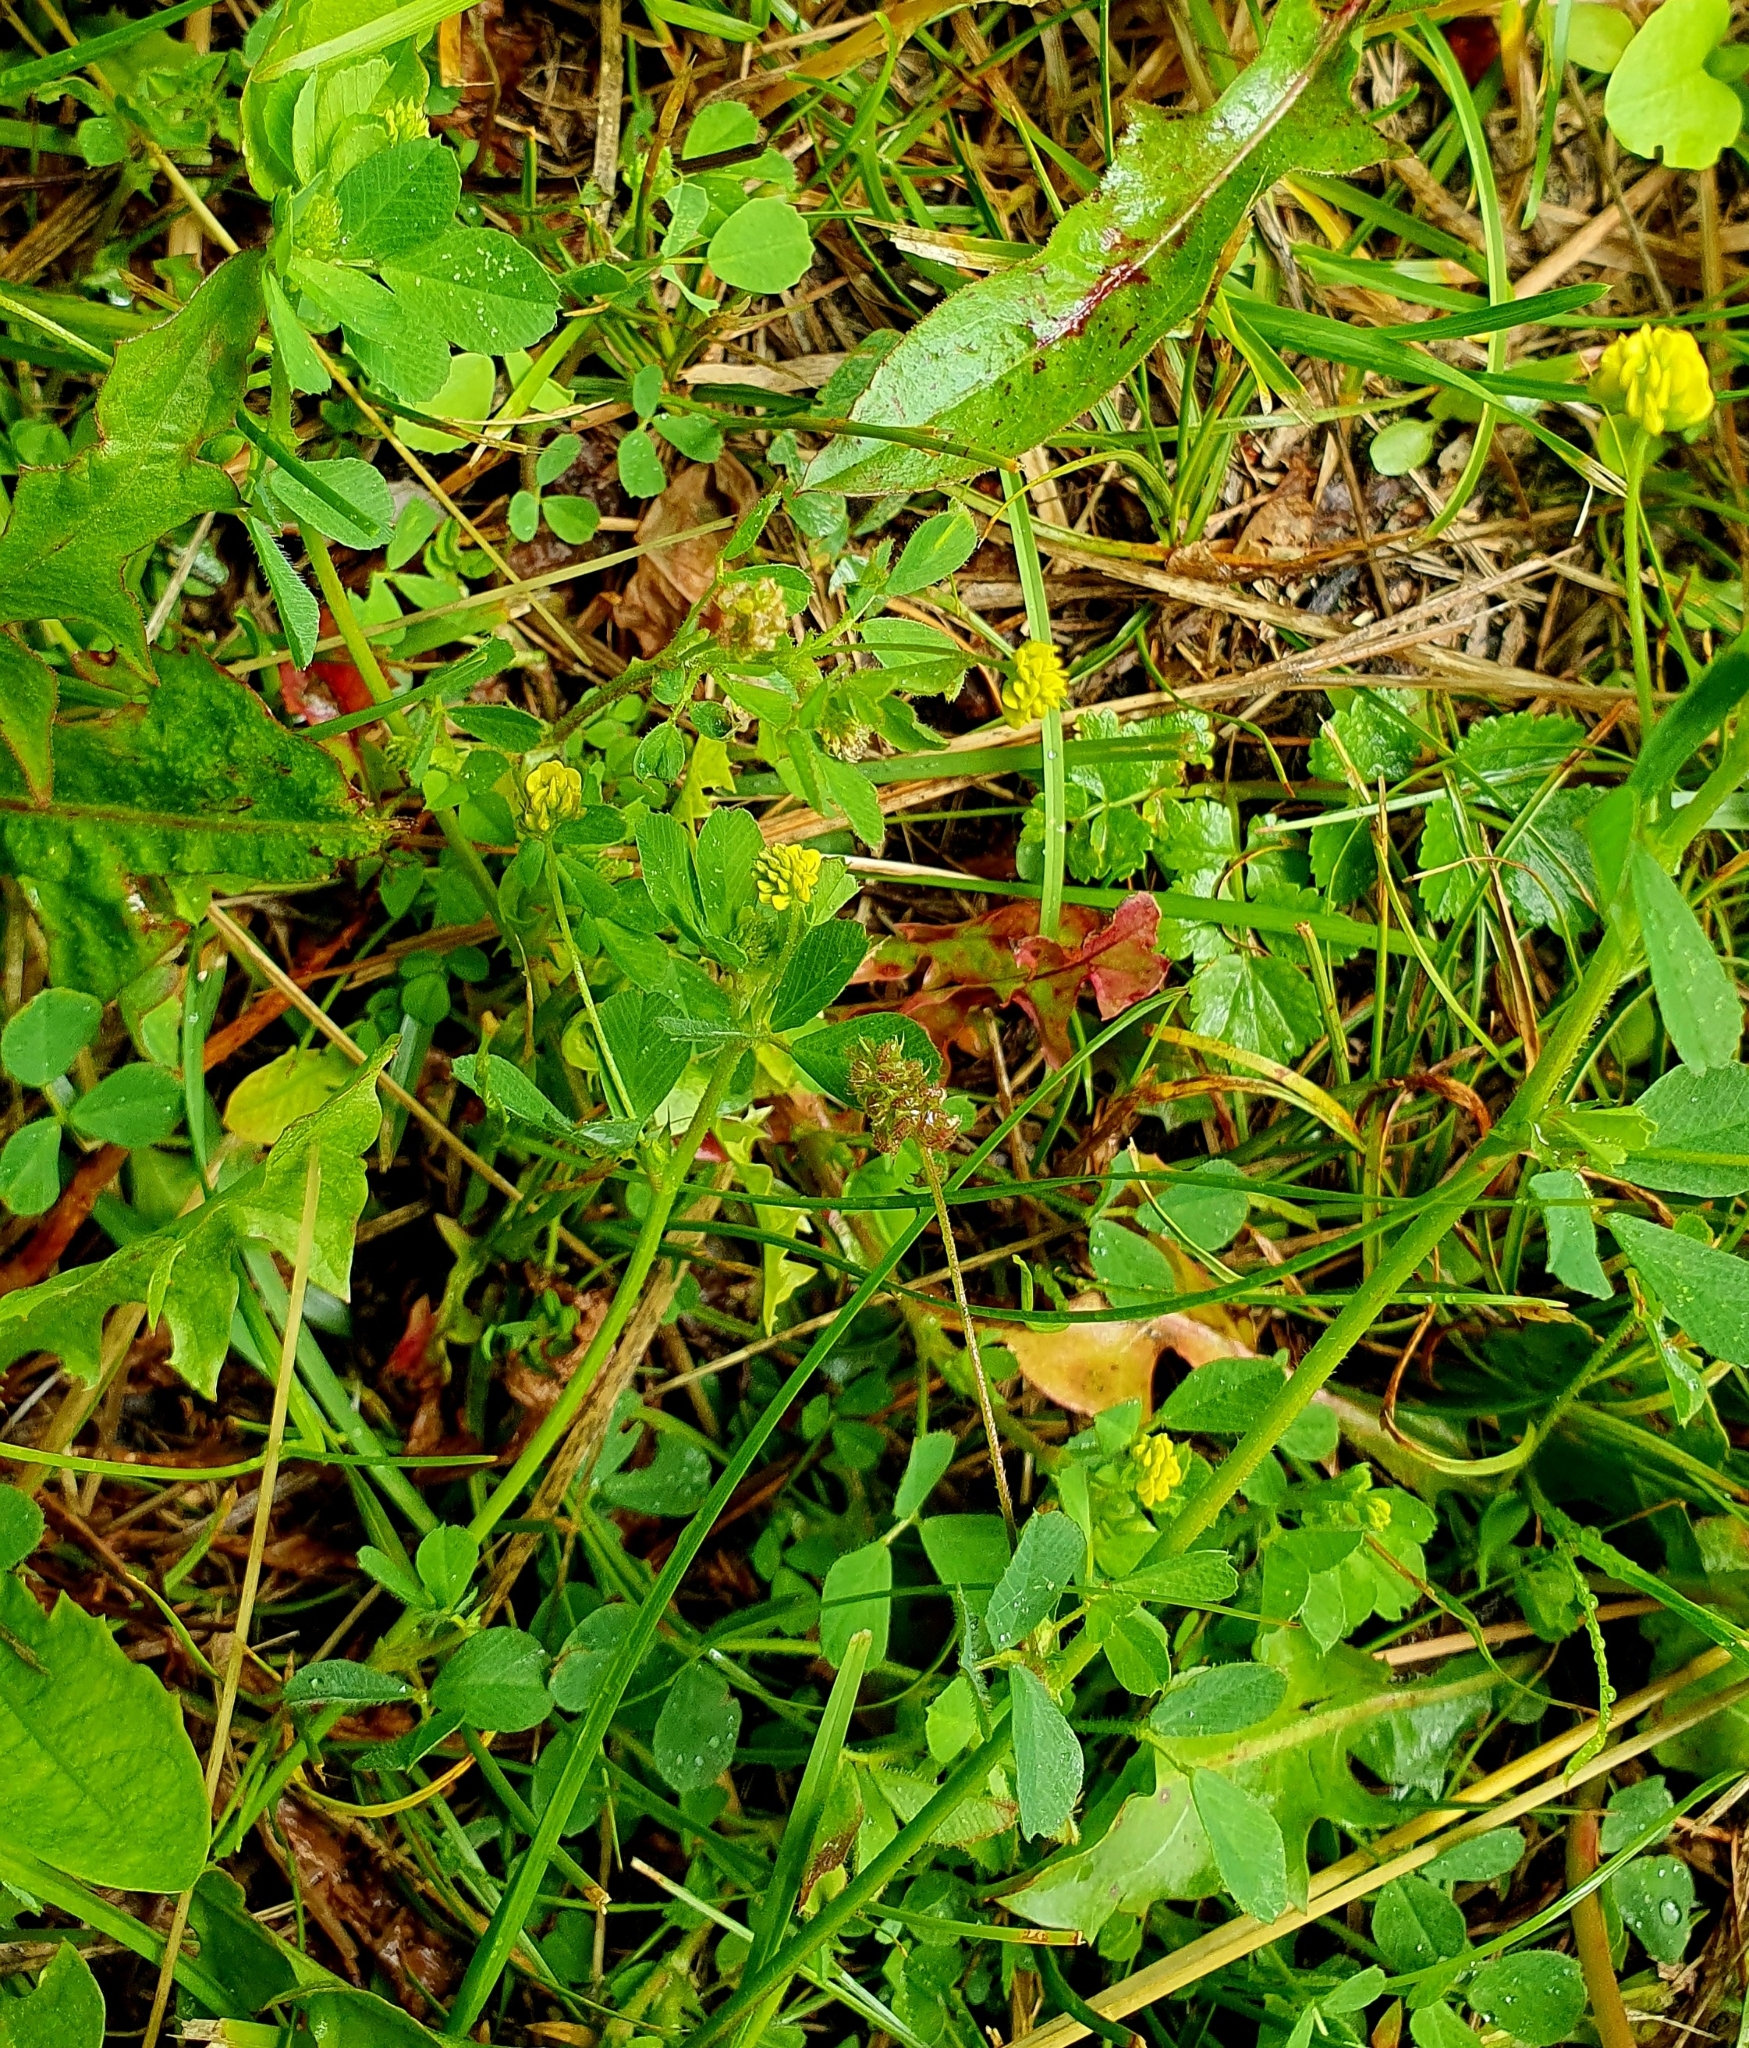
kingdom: Plantae
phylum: Tracheophyta
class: Magnoliopsida
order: Fabales
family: Fabaceae
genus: Medicago
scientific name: Medicago lupulina
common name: Black medick
